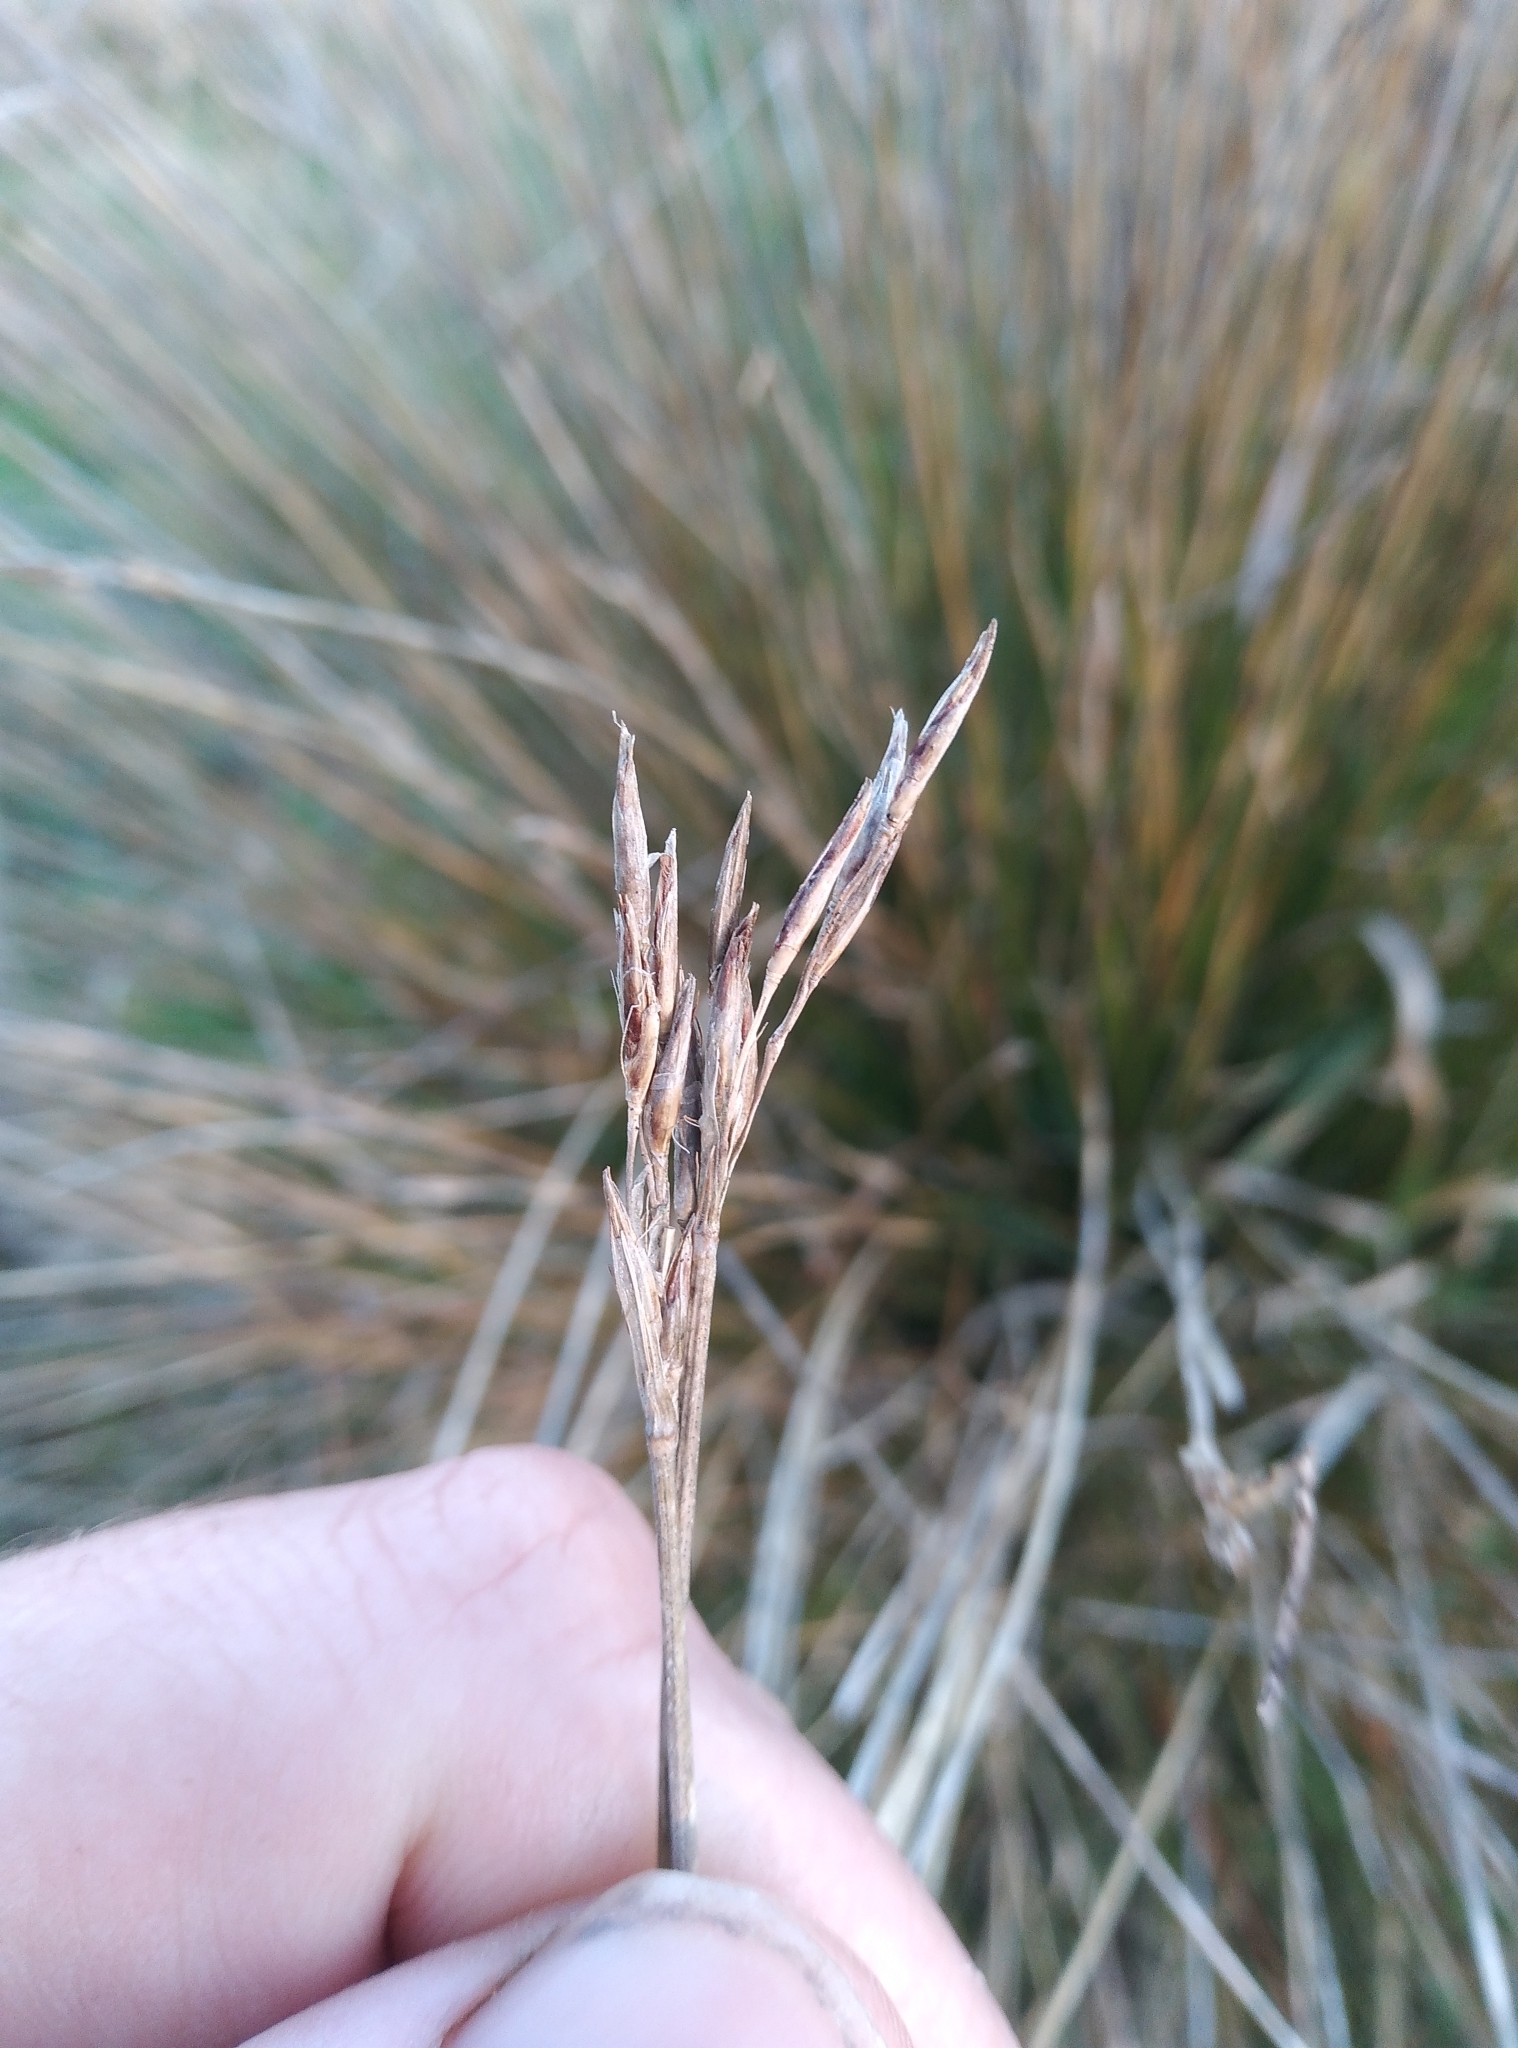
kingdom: Plantae
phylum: Tracheophyta
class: Liliopsida
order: Poales
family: Cyperaceae
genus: Schoenus
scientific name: Schoenus pauciflorus
